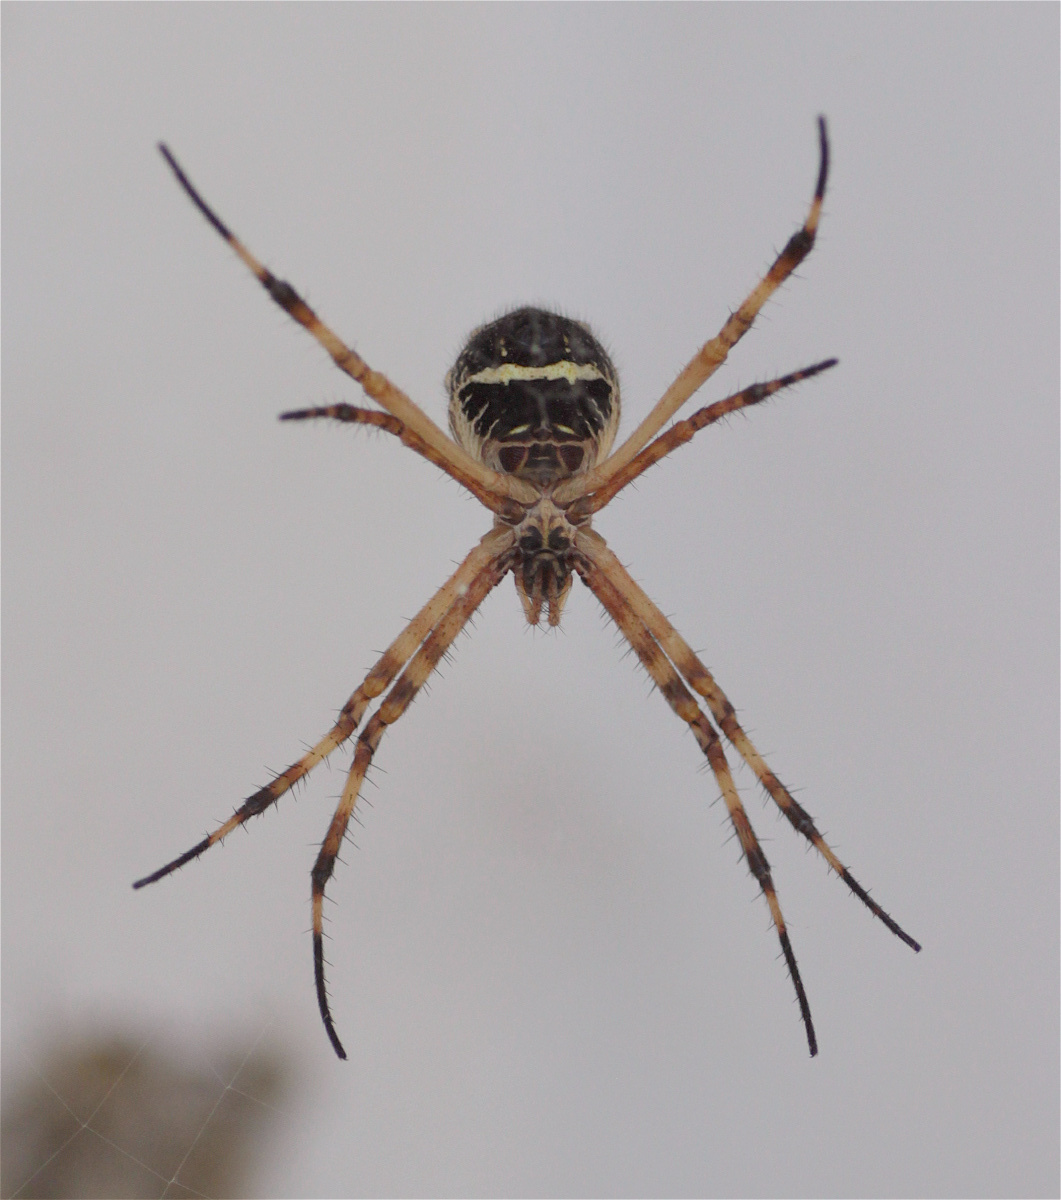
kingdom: Animalia
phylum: Arthropoda
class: Arachnida
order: Araneae
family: Araneidae
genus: Argiope
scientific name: Argiope argentata
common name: Orb weavers
